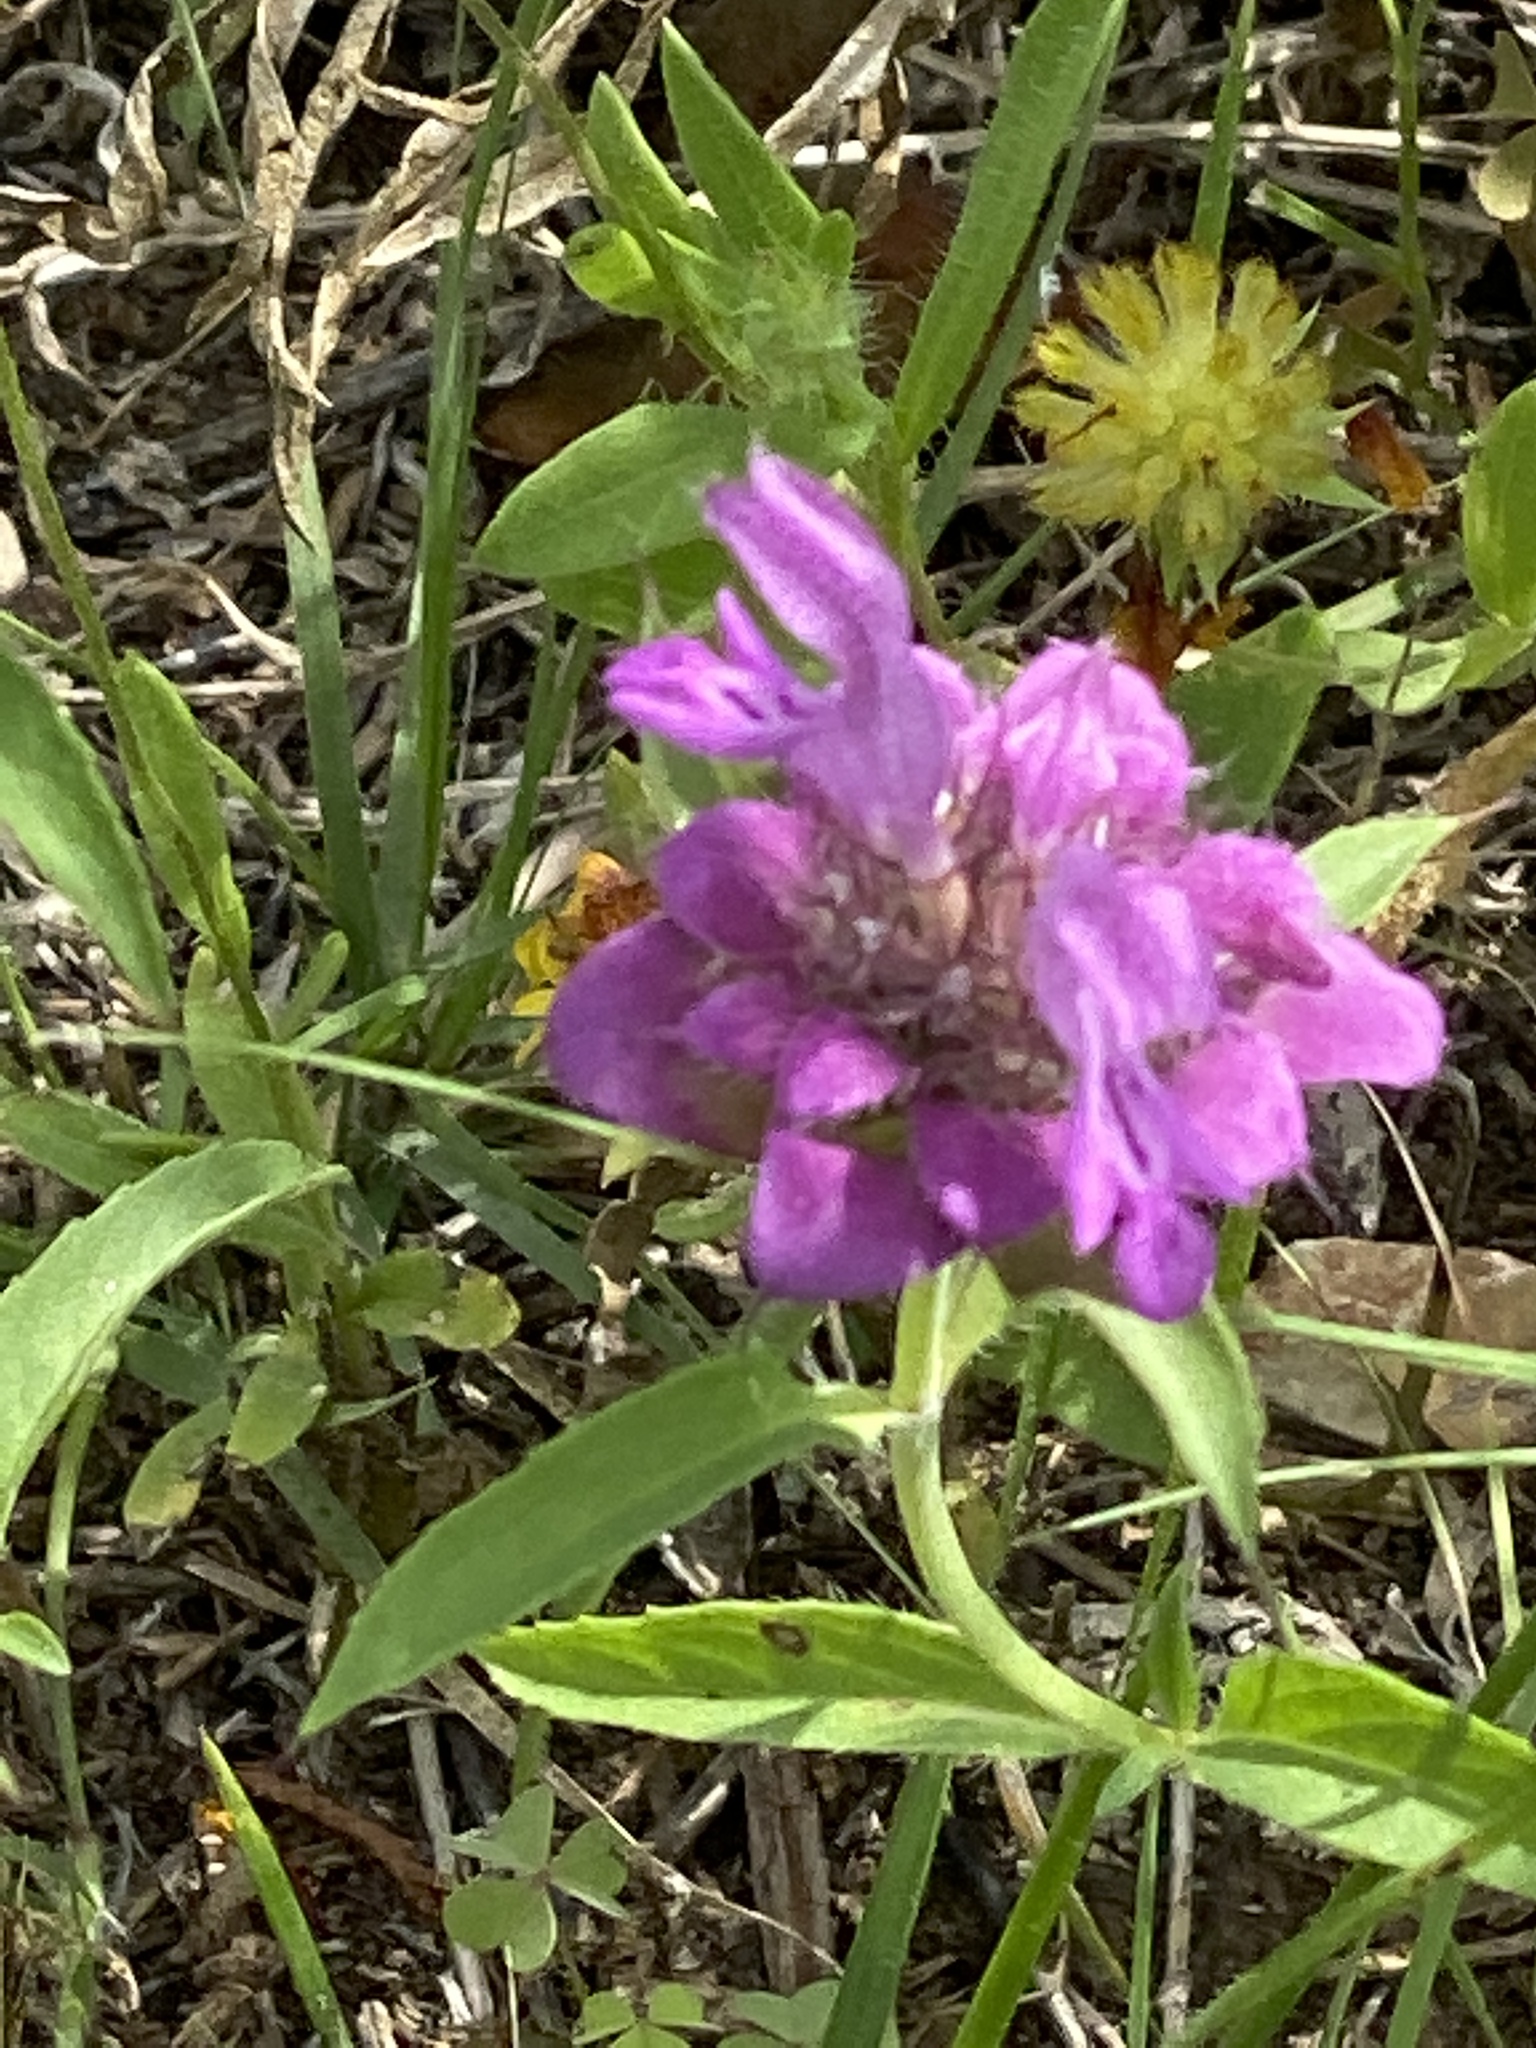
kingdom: Plantae
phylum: Tracheophyta
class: Magnoliopsida
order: Lamiales
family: Lamiaceae
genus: Monarda
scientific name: Monarda citriodora
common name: Lemon beebalm
